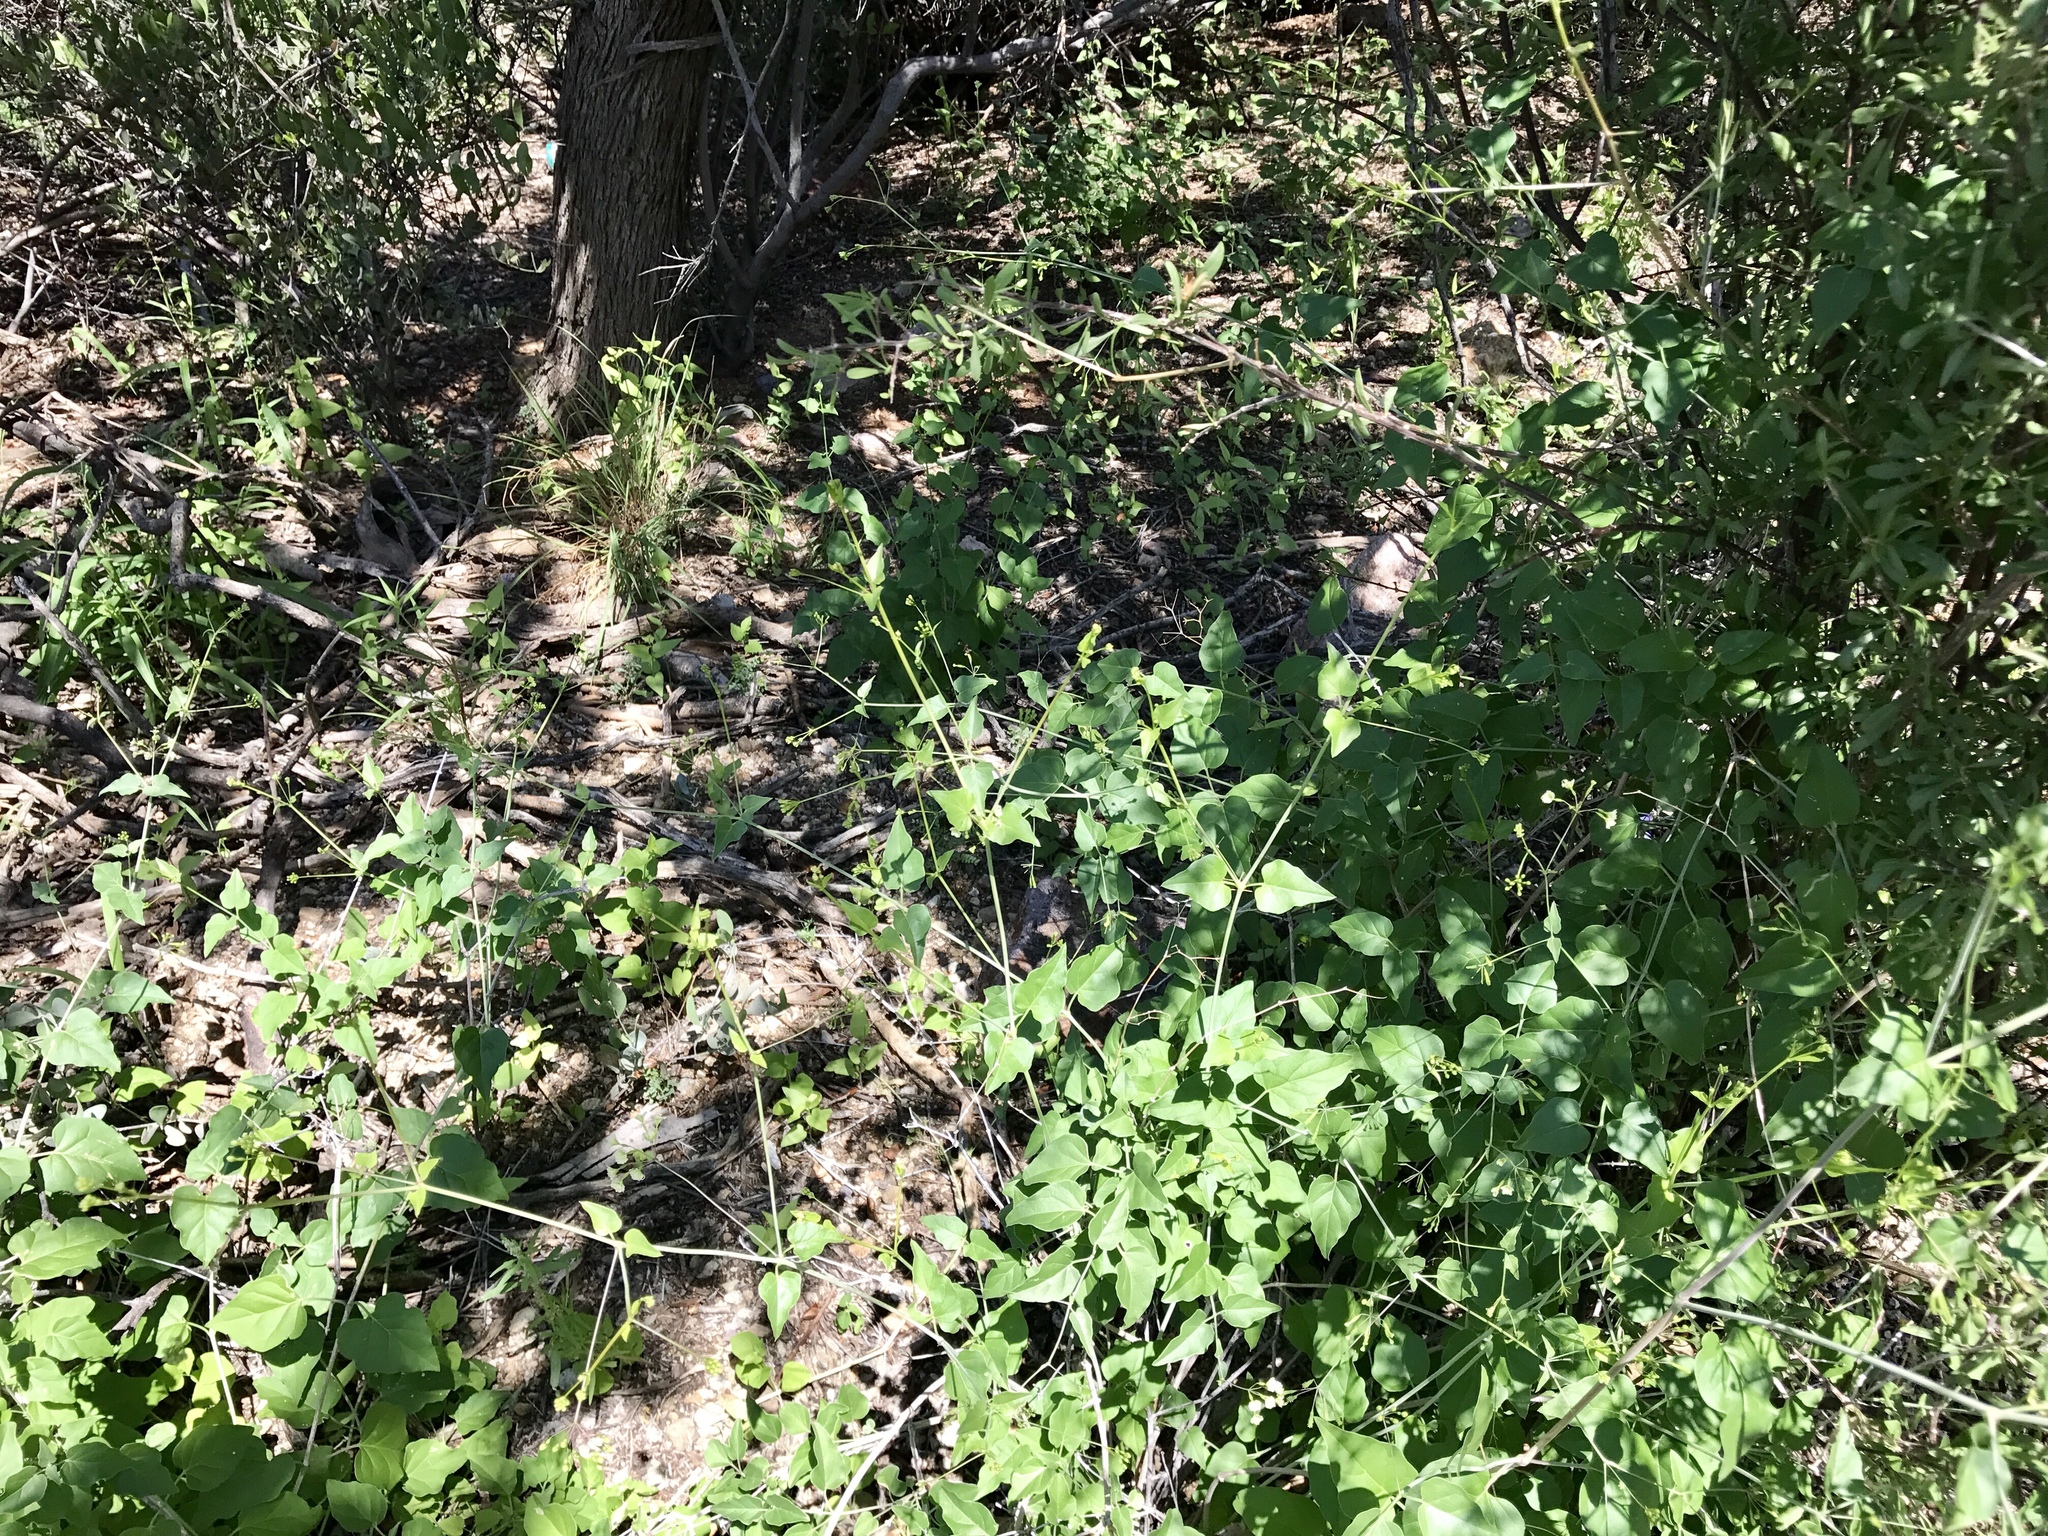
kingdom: Plantae
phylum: Tracheophyta
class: Magnoliopsida
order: Caryophyllales
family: Nyctaginaceae
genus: Commicarpus
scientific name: Commicarpus scandens
